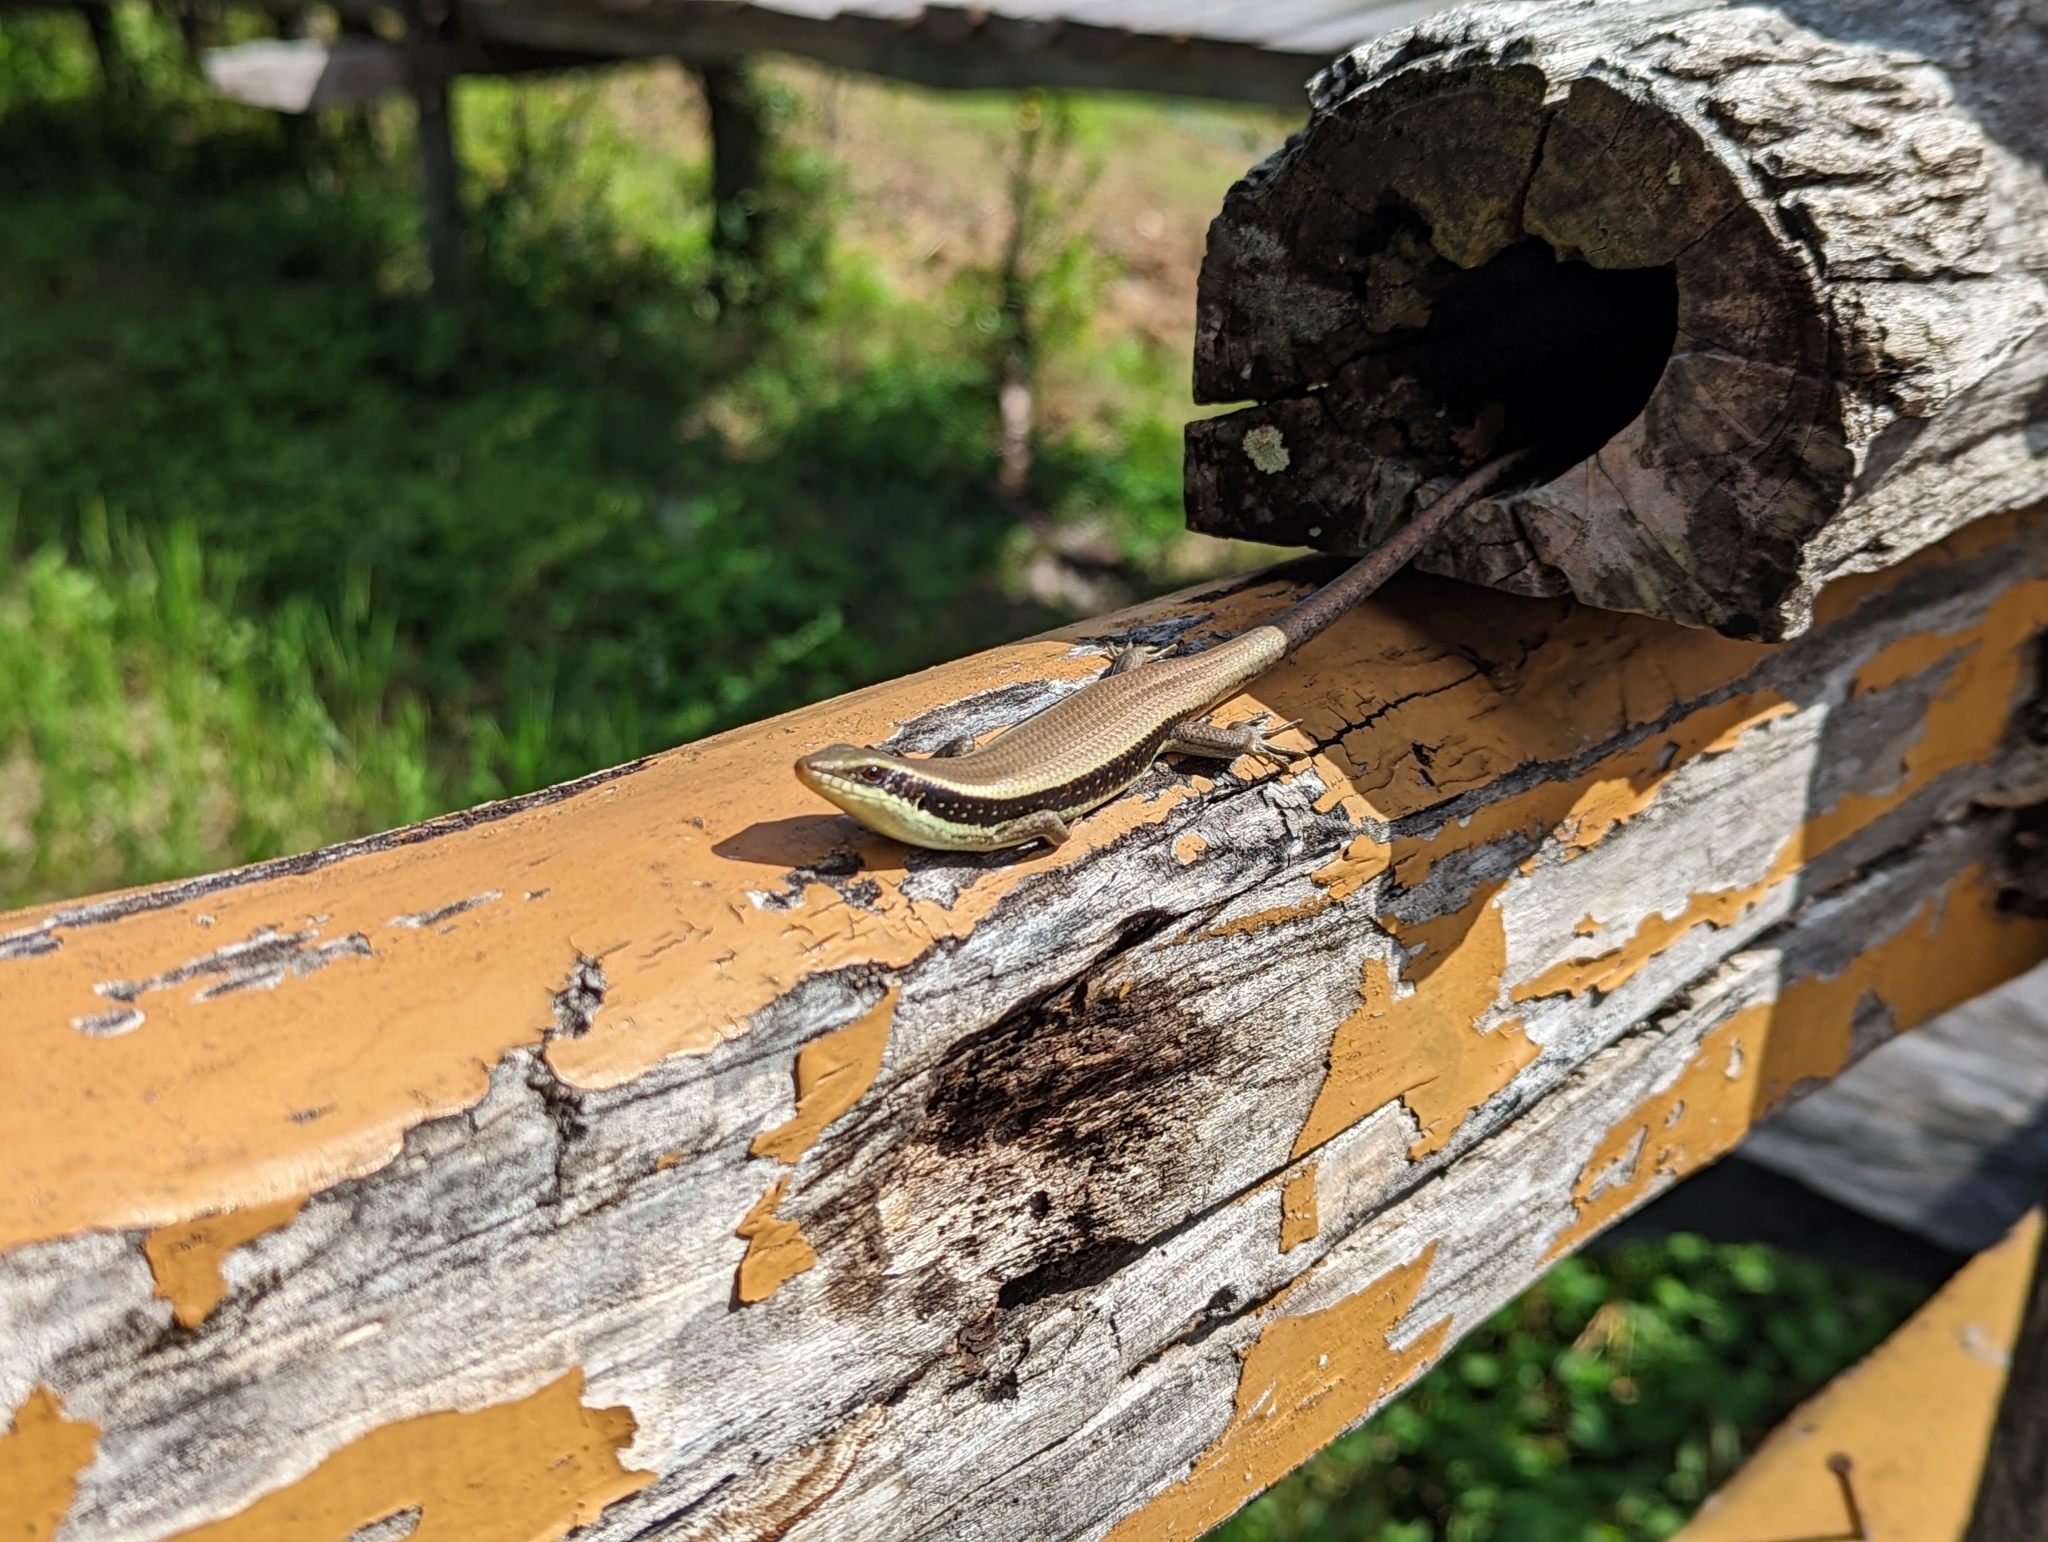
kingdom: Animalia
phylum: Chordata
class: Squamata
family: Scincidae
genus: Eutropis
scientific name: Eutropis longicaudata
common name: Long-tailed sun skink
